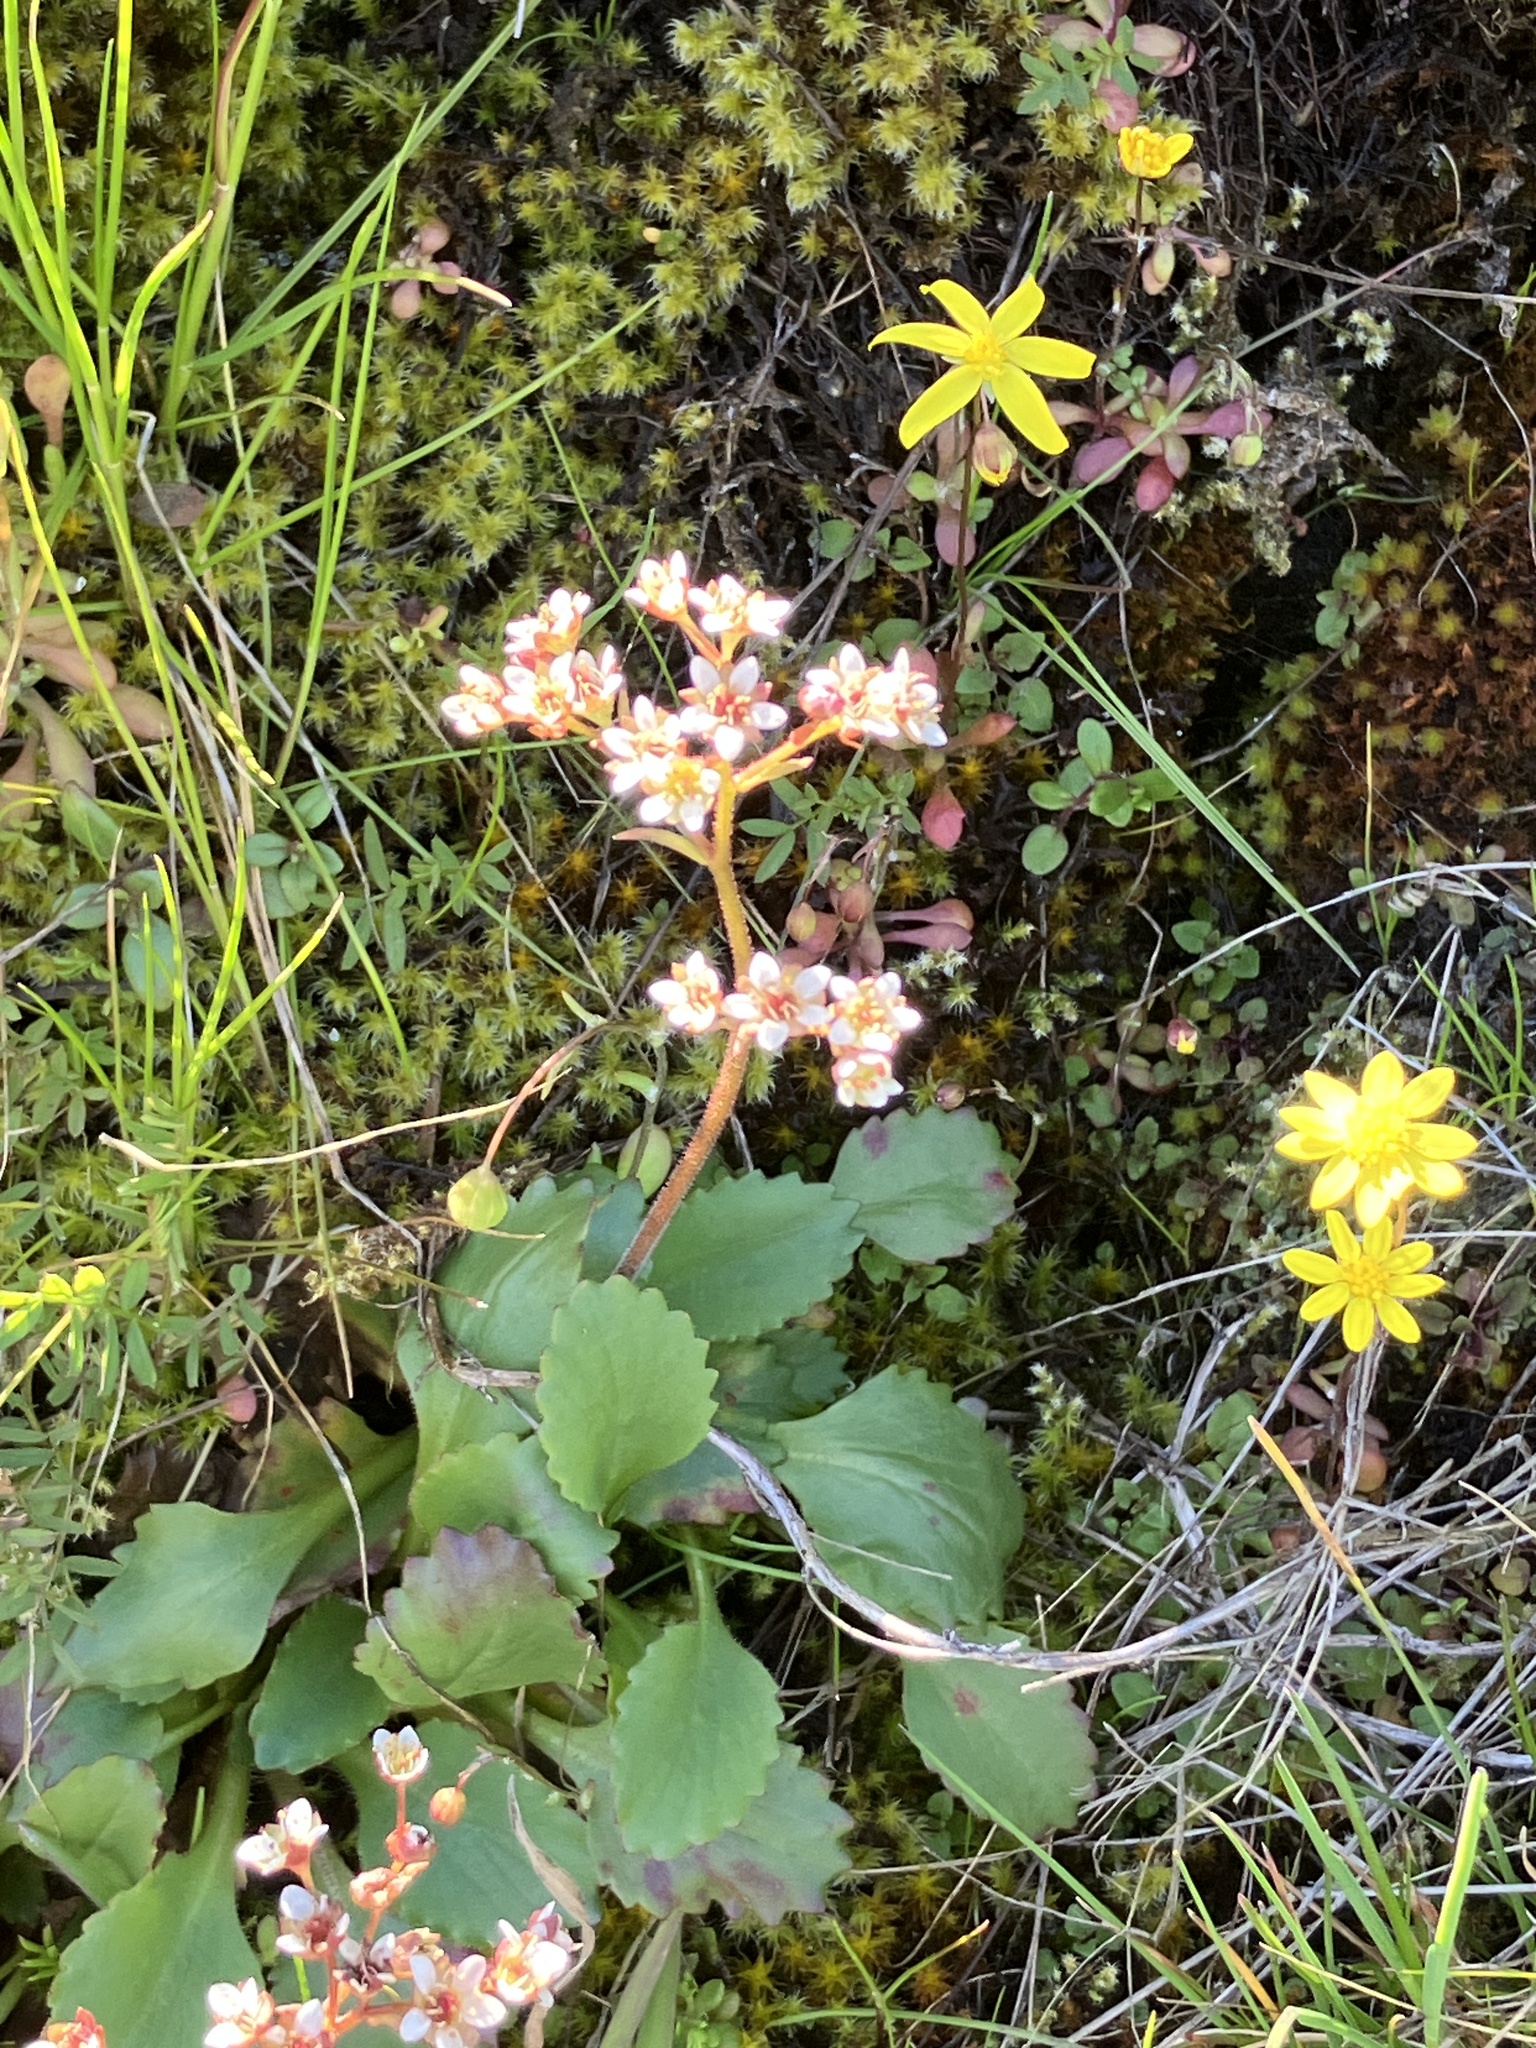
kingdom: Plantae
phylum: Tracheophyta
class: Magnoliopsida
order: Saxifragales
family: Saxifragaceae
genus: Micranthes
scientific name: Micranthes rufidula
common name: Rustyhair saxifrage
